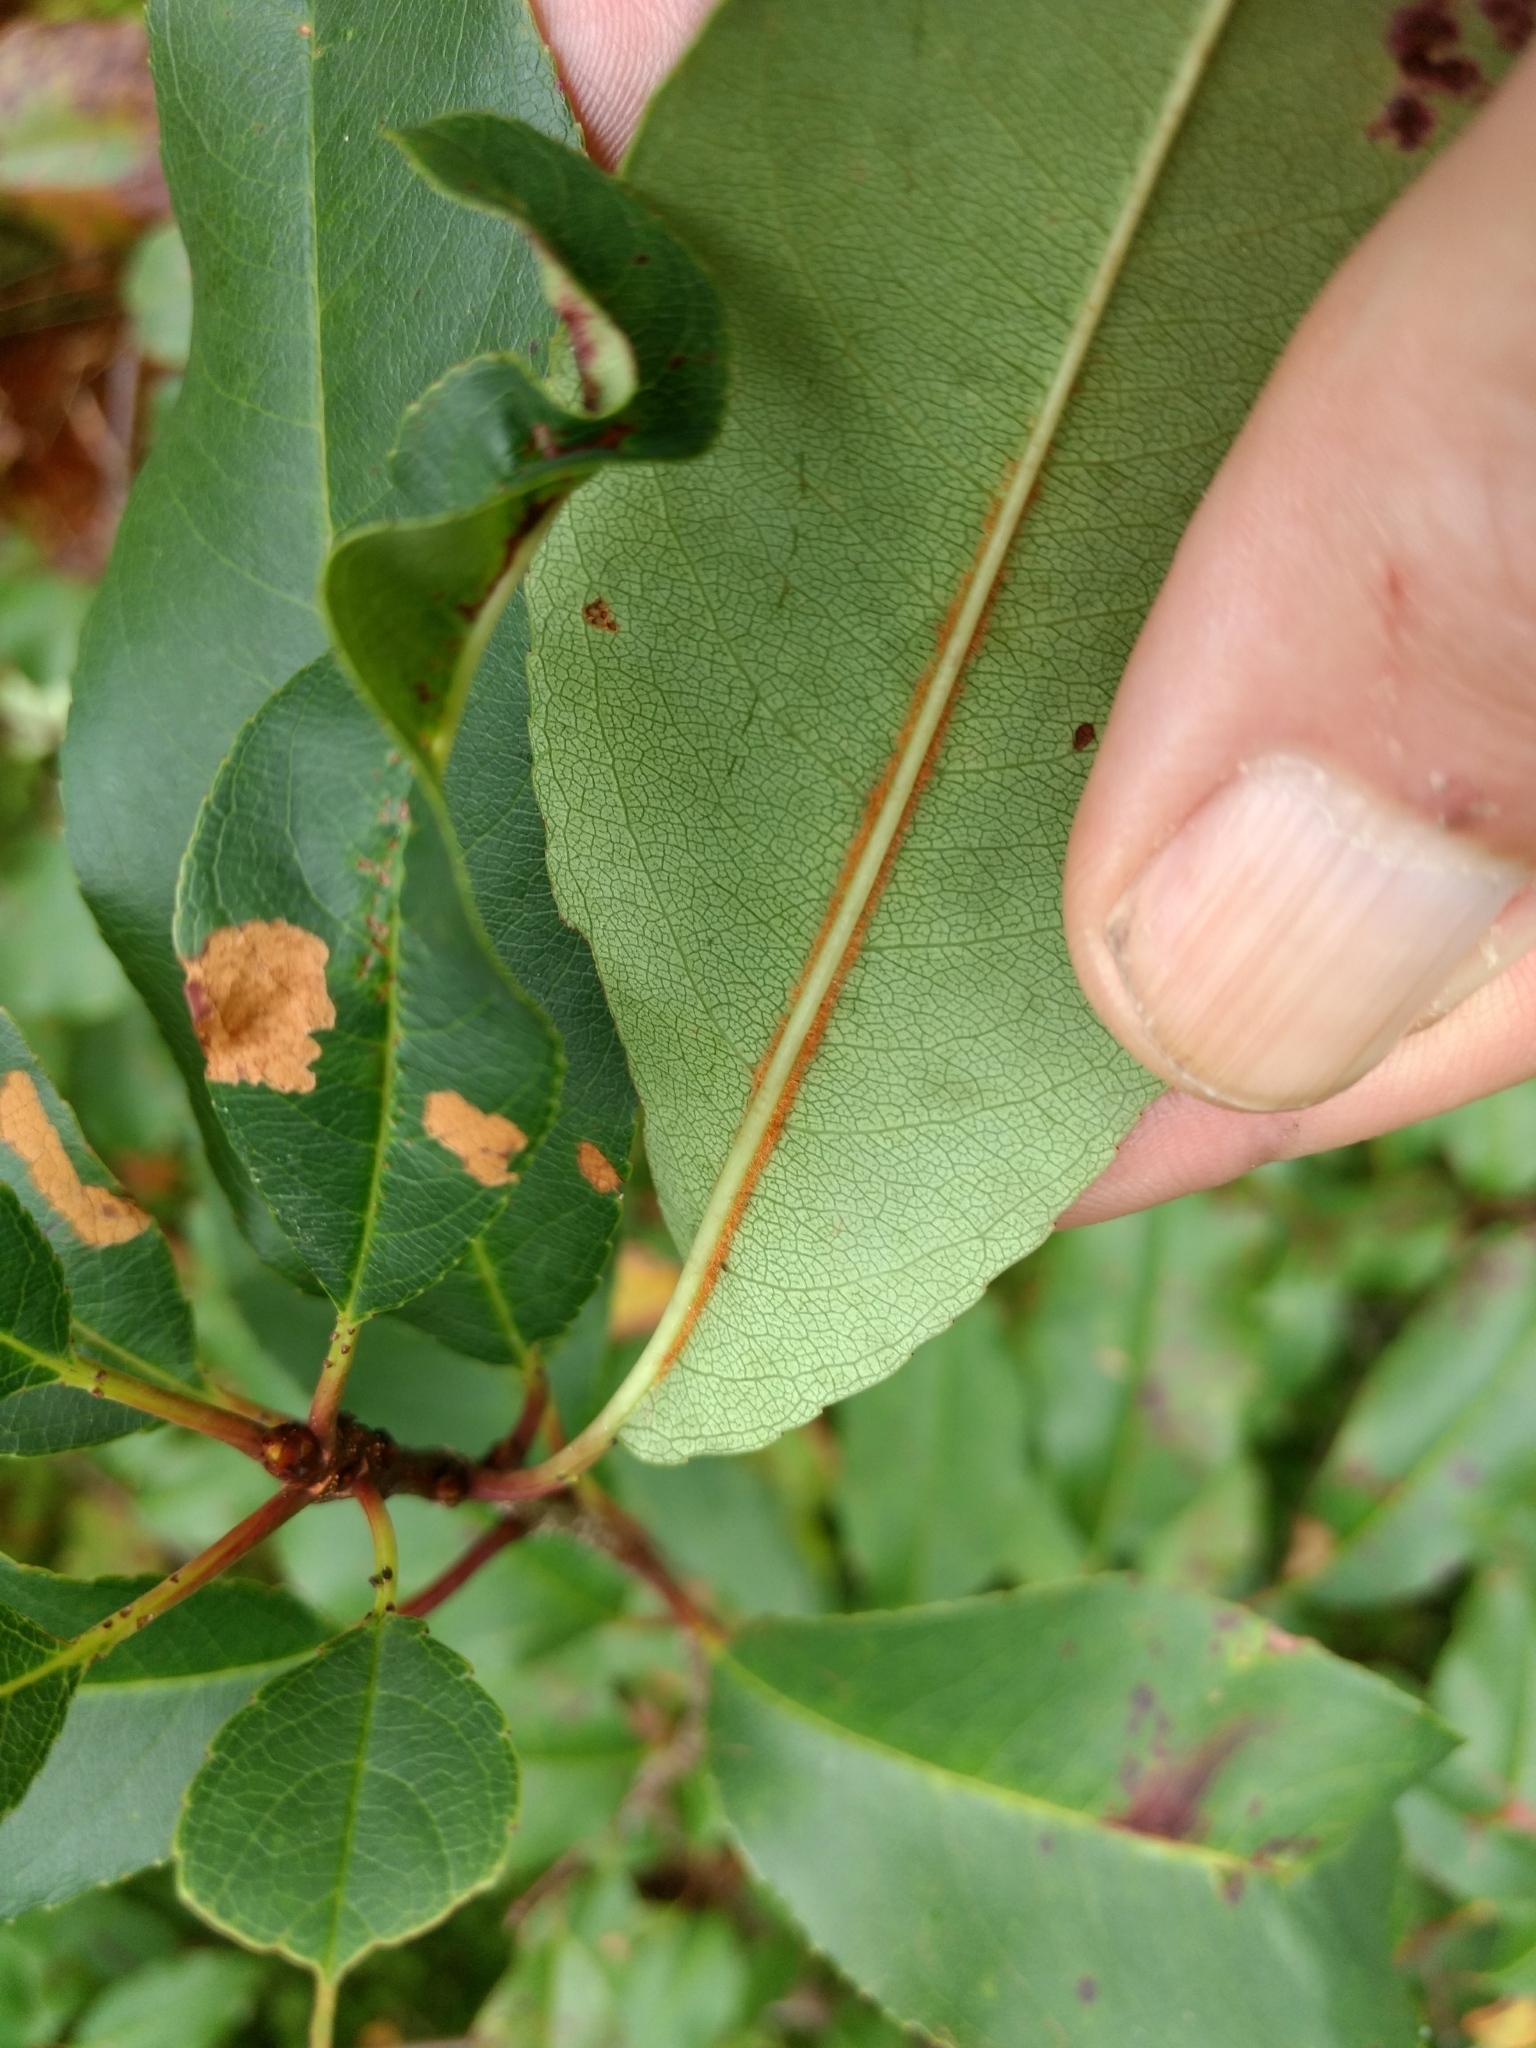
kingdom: Plantae
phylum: Tracheophyta
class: Magnoliopsida
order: Rosales
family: Rosaceae
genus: Prunus
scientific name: Prunus serotina
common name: Black cherry
